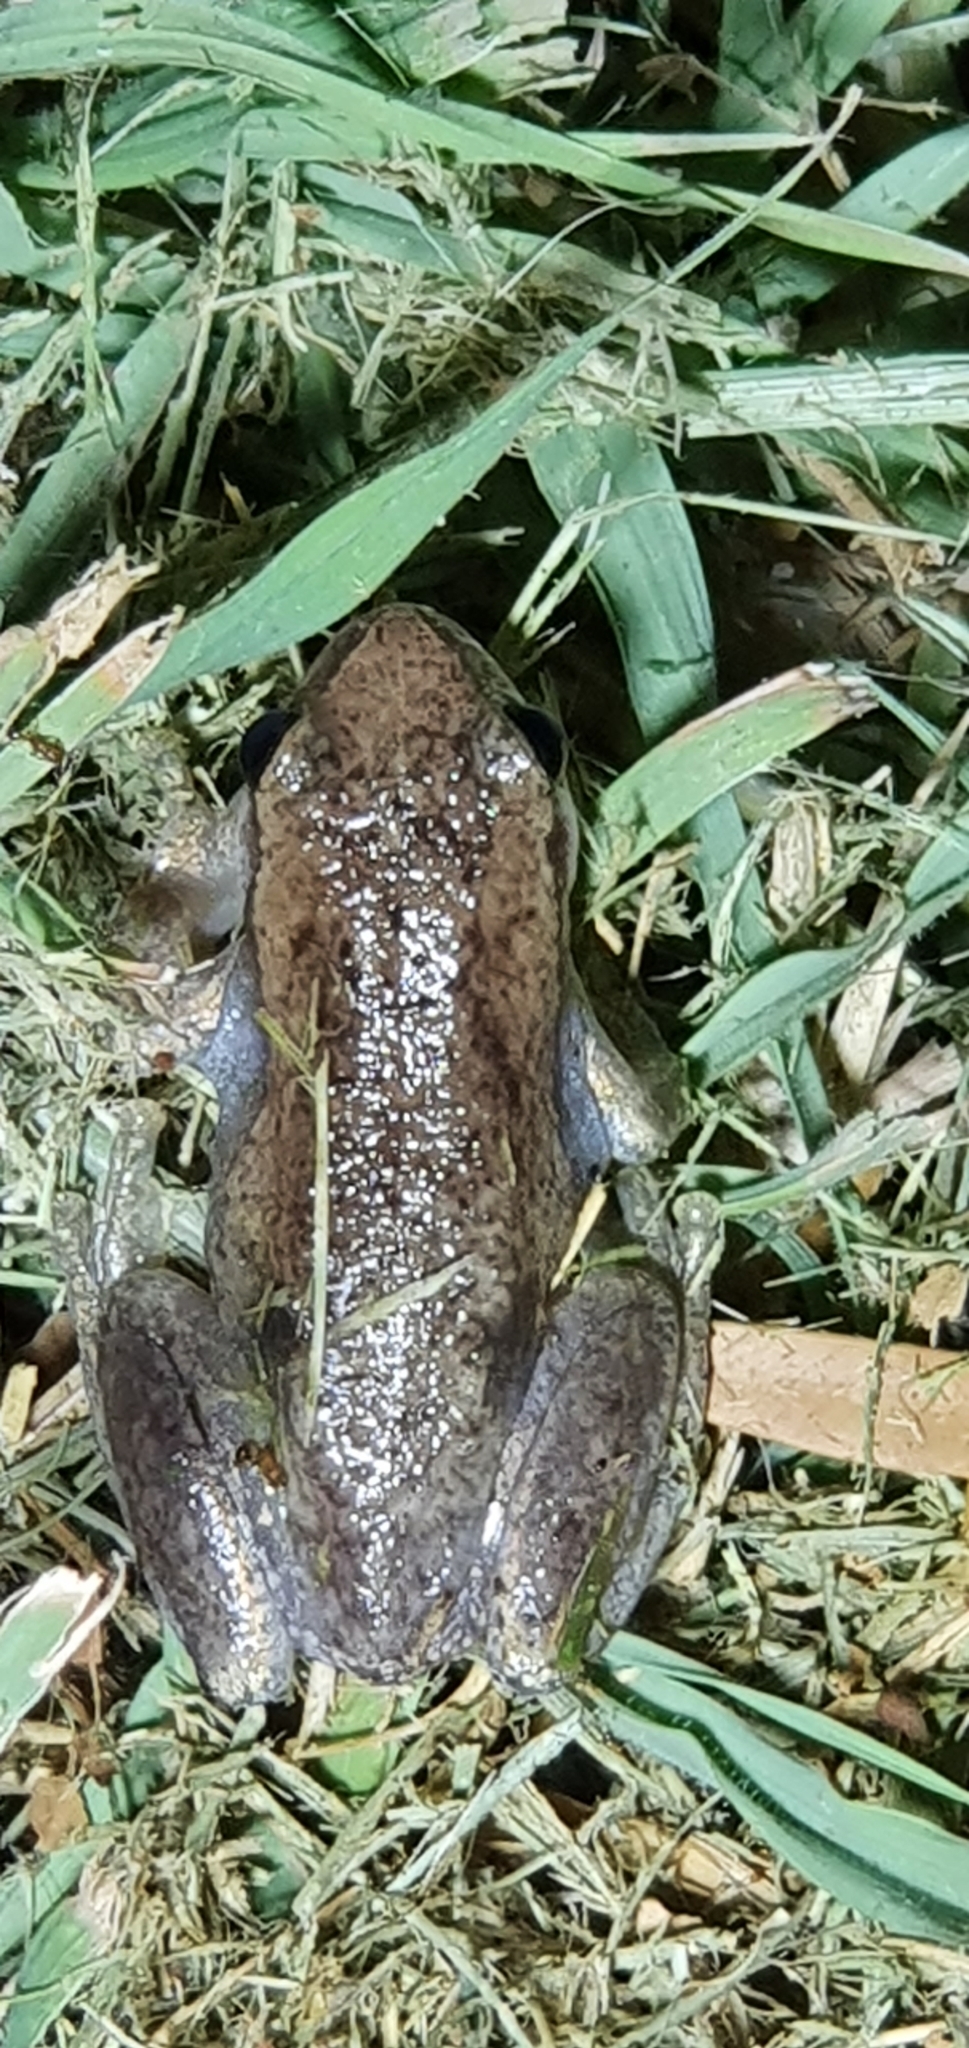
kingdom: Animalia
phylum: Chordata
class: Amphibia
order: Anura
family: Pelodryadidae
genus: Litoria
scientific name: Litoria rubella
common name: Desert tree frog
